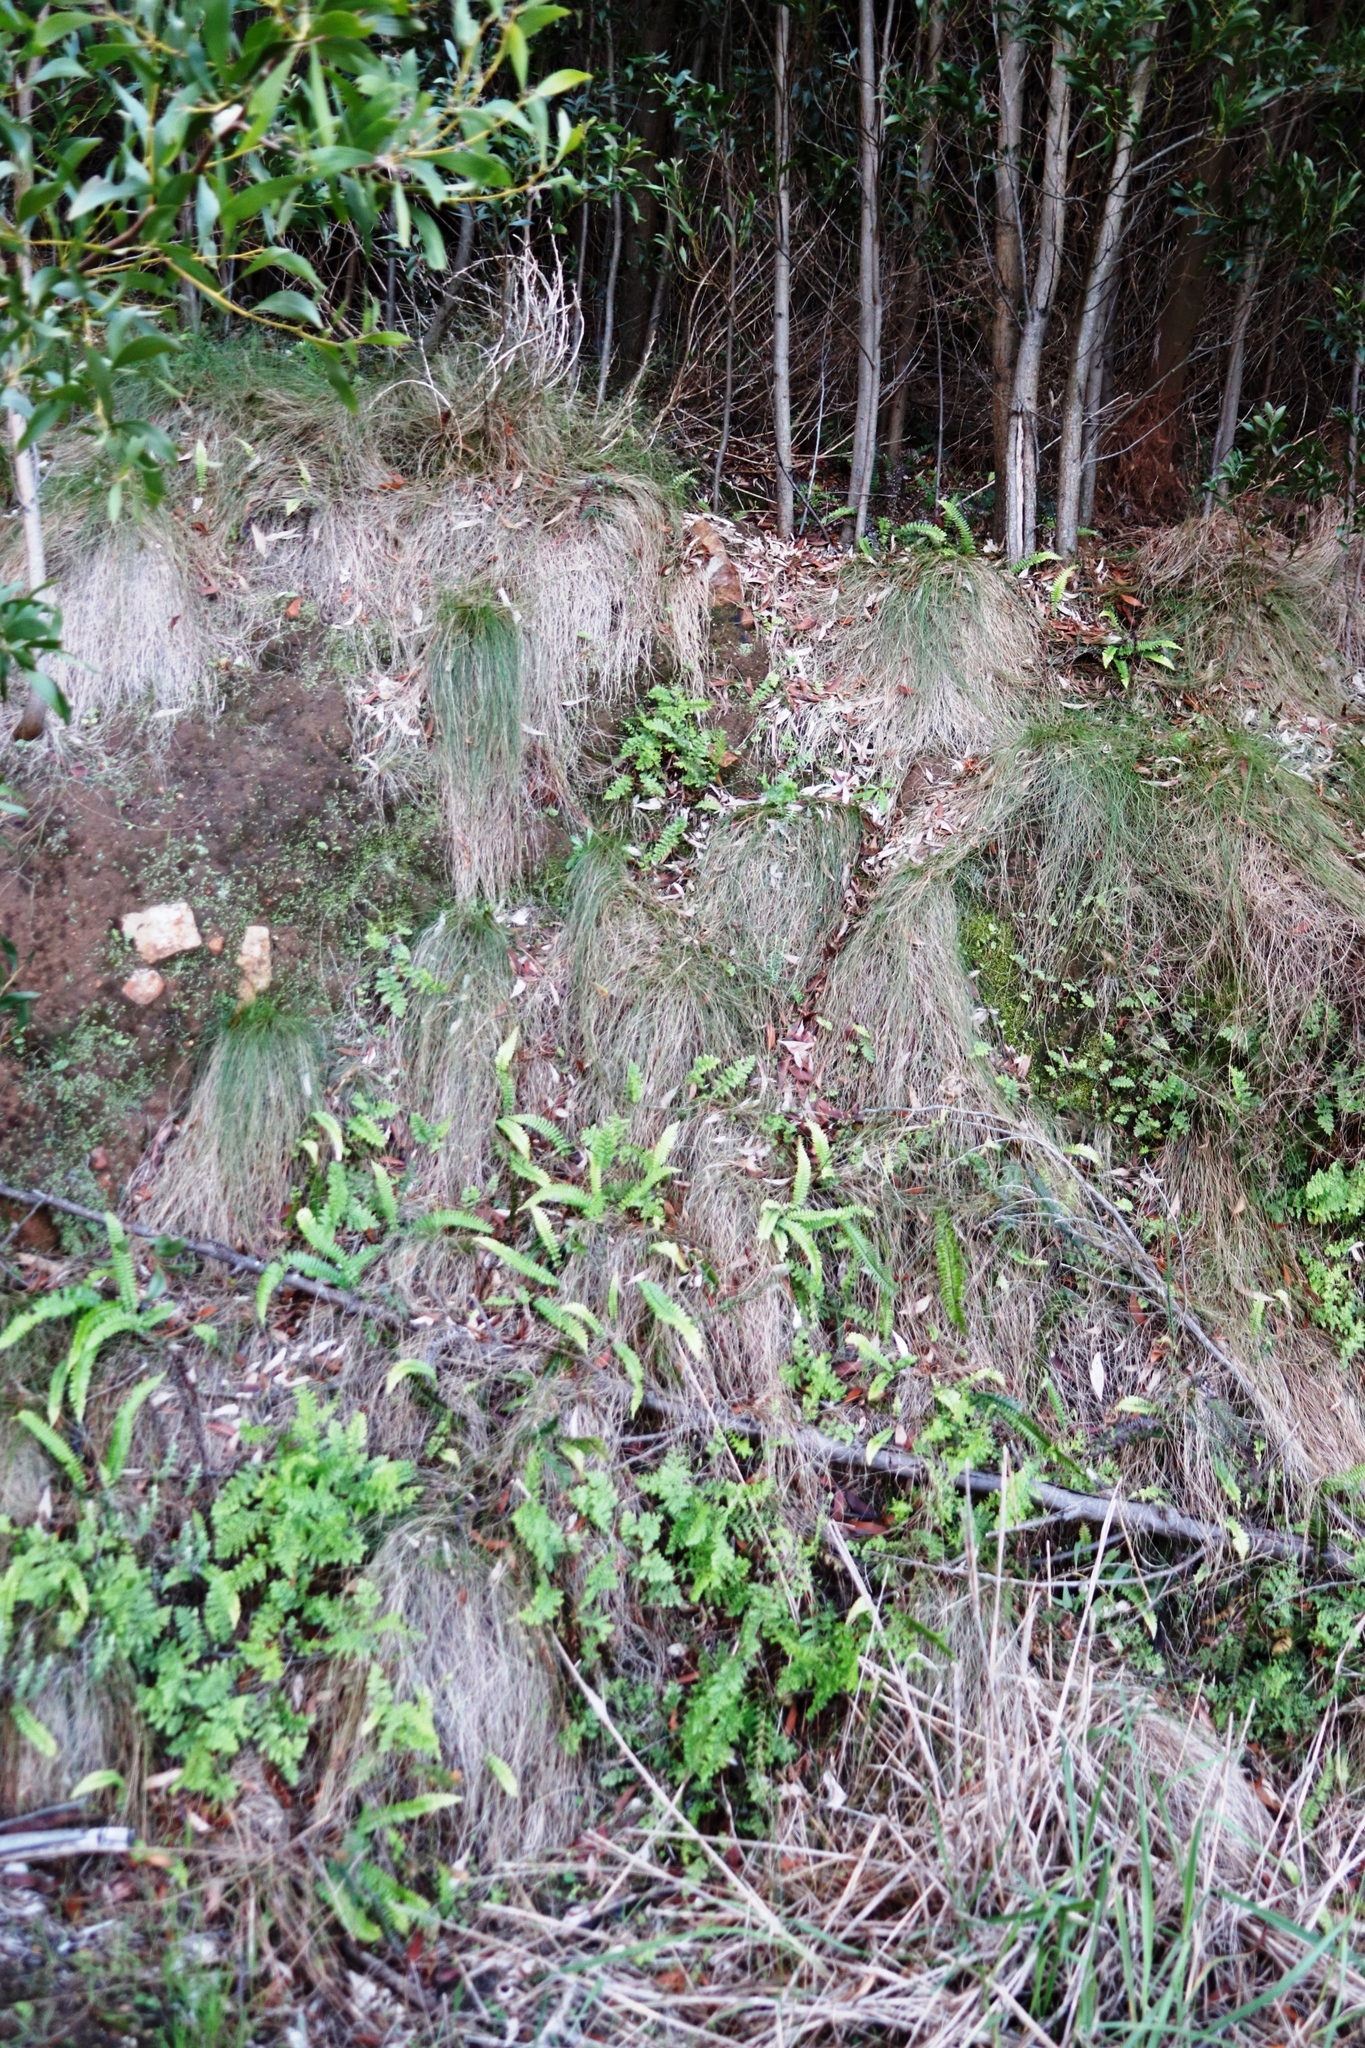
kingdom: Plantae
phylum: Tracheophyta
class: Polypodiopsida
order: Polypodiales
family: Blechnaceae
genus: Blechnum
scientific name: Blechnum australe
